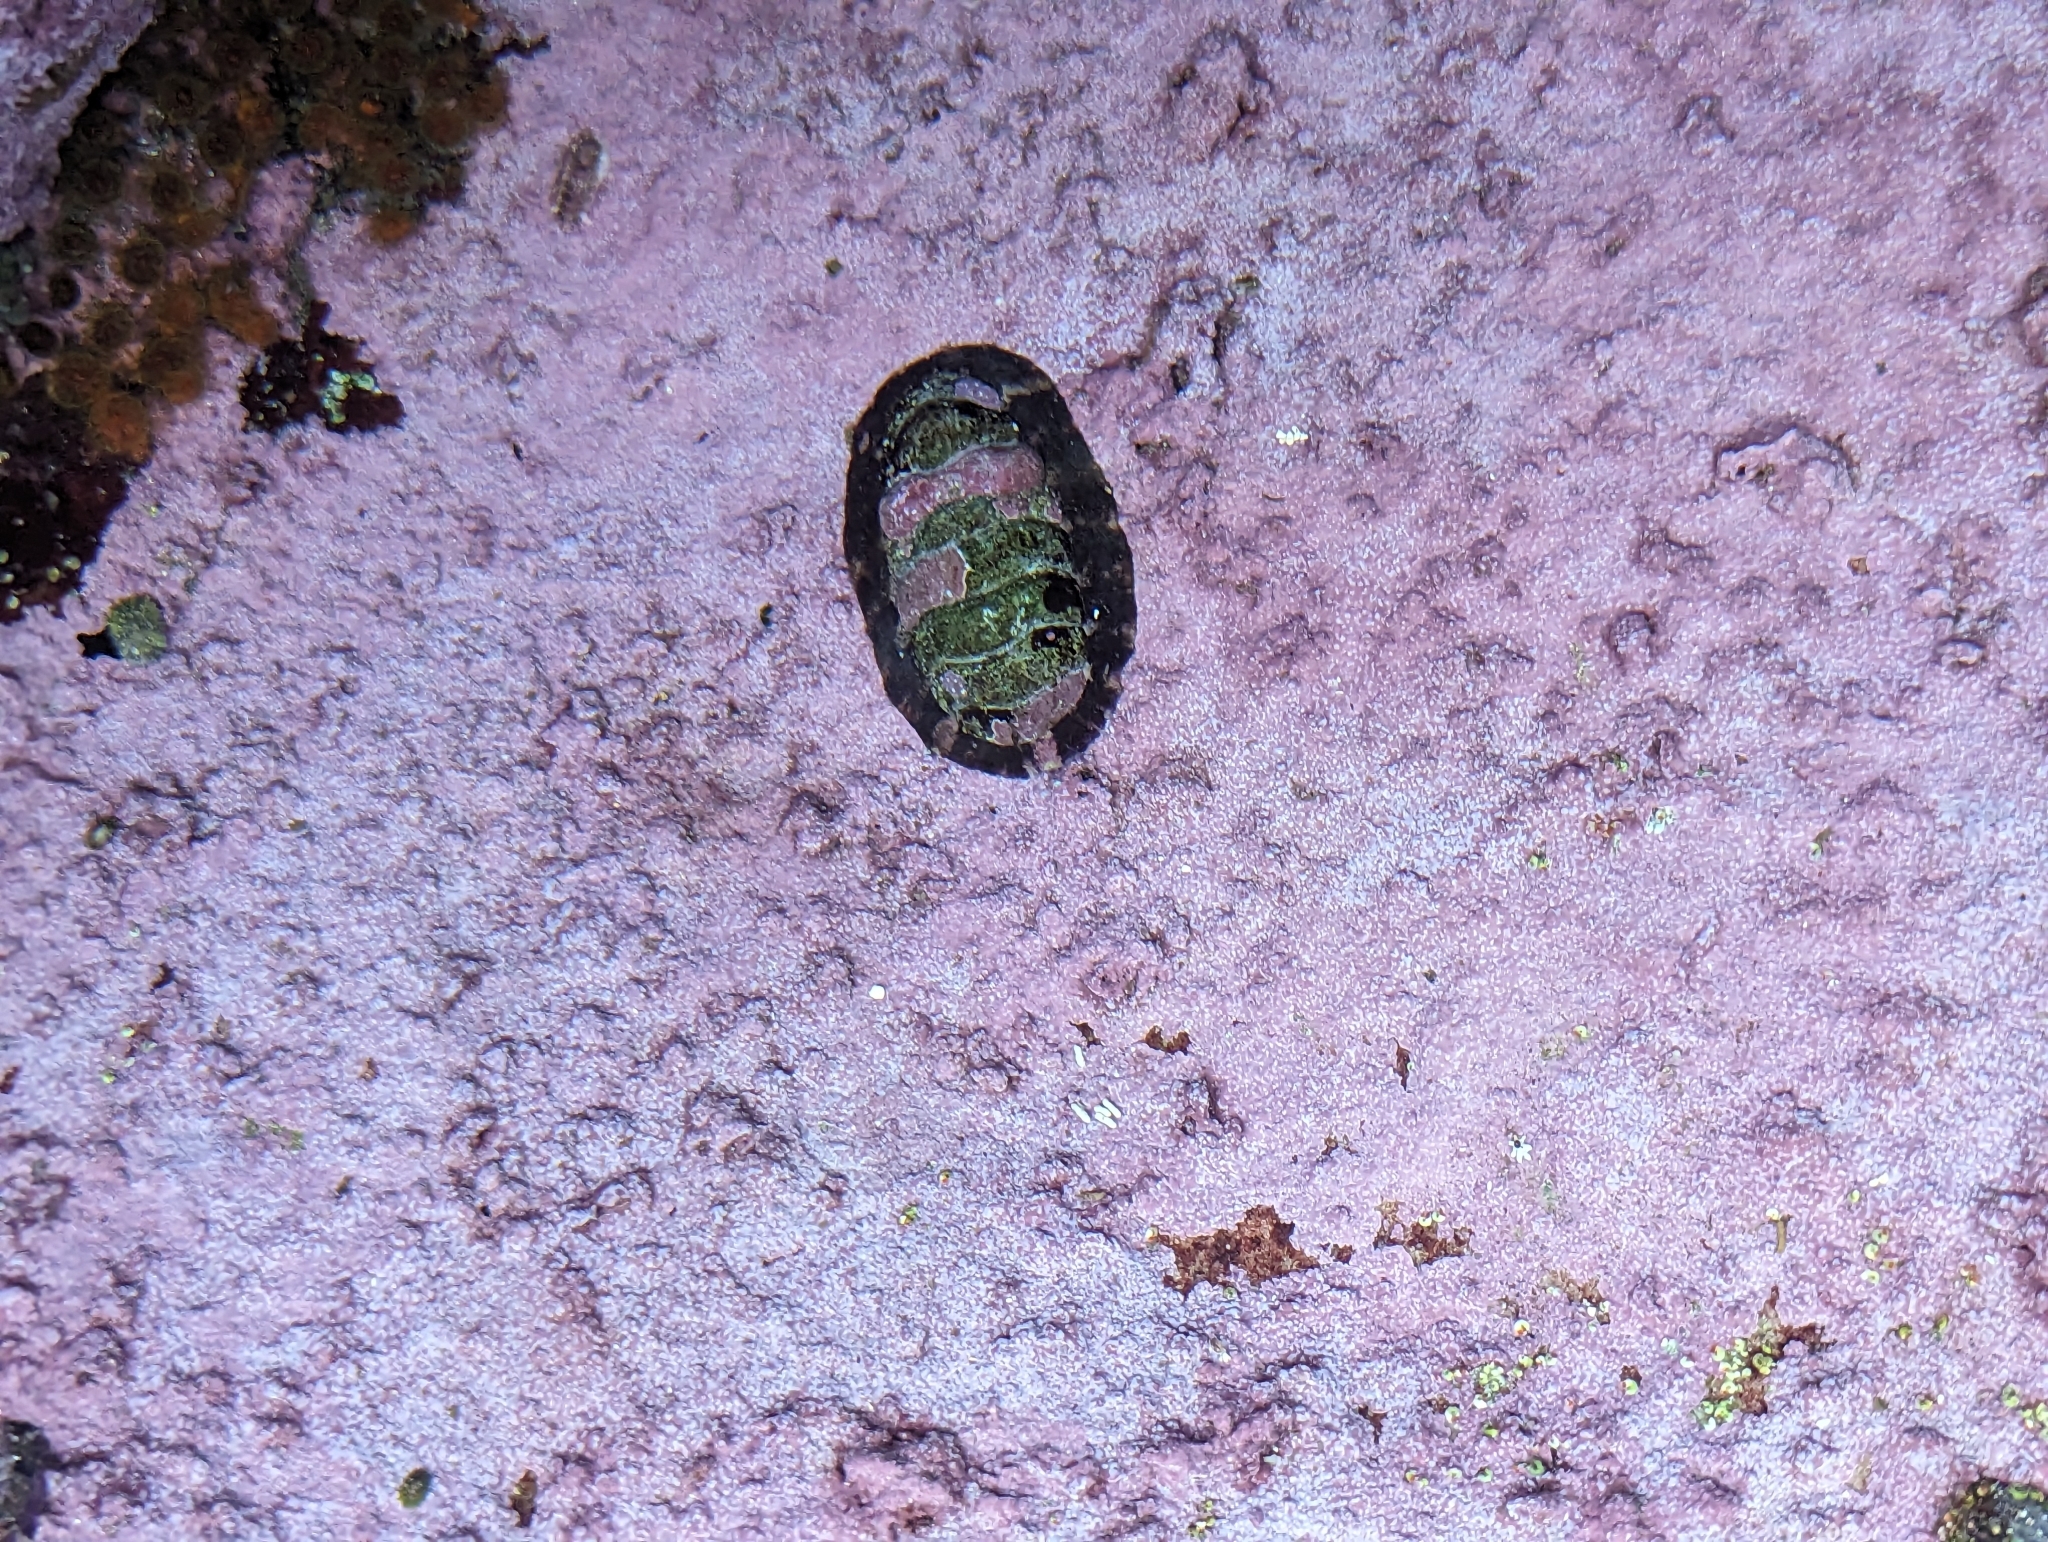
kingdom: Animalia
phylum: Mollusca
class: Polyplacophora
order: Chitonida
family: Chitonidae
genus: Onithochiton
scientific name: Onithochiton quercinus
